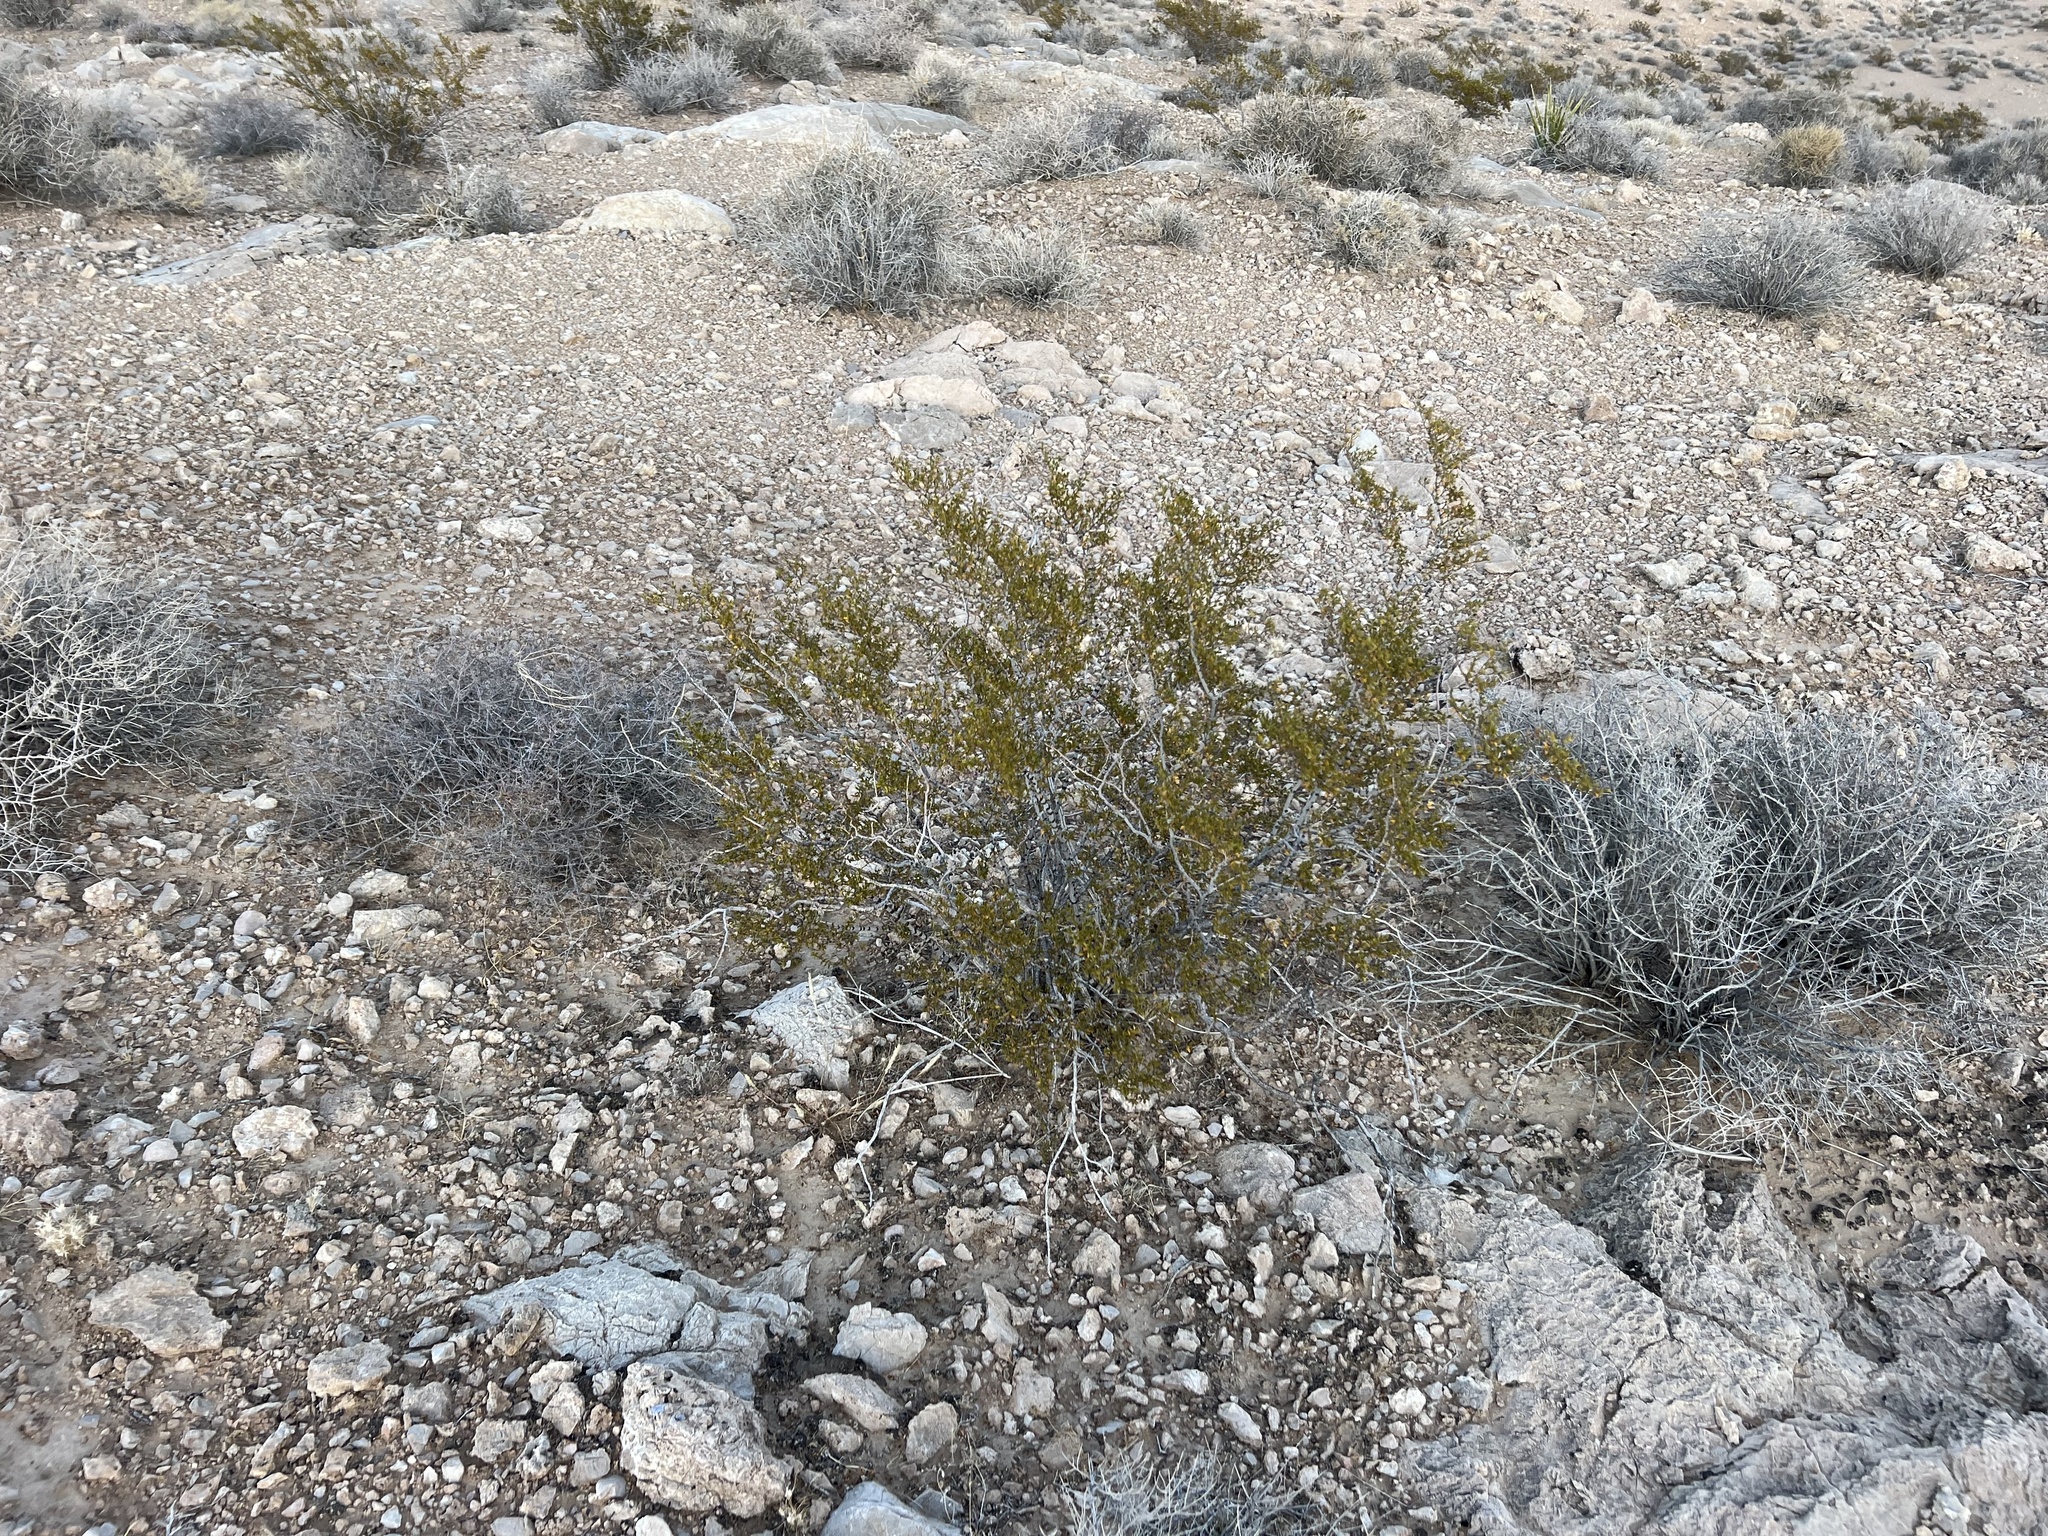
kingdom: Plantae
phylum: Tracheophyta
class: Magnoliopsida
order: Zygophyllales
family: Zygophyllaceae
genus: Larrea
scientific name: Larrea tridentata
